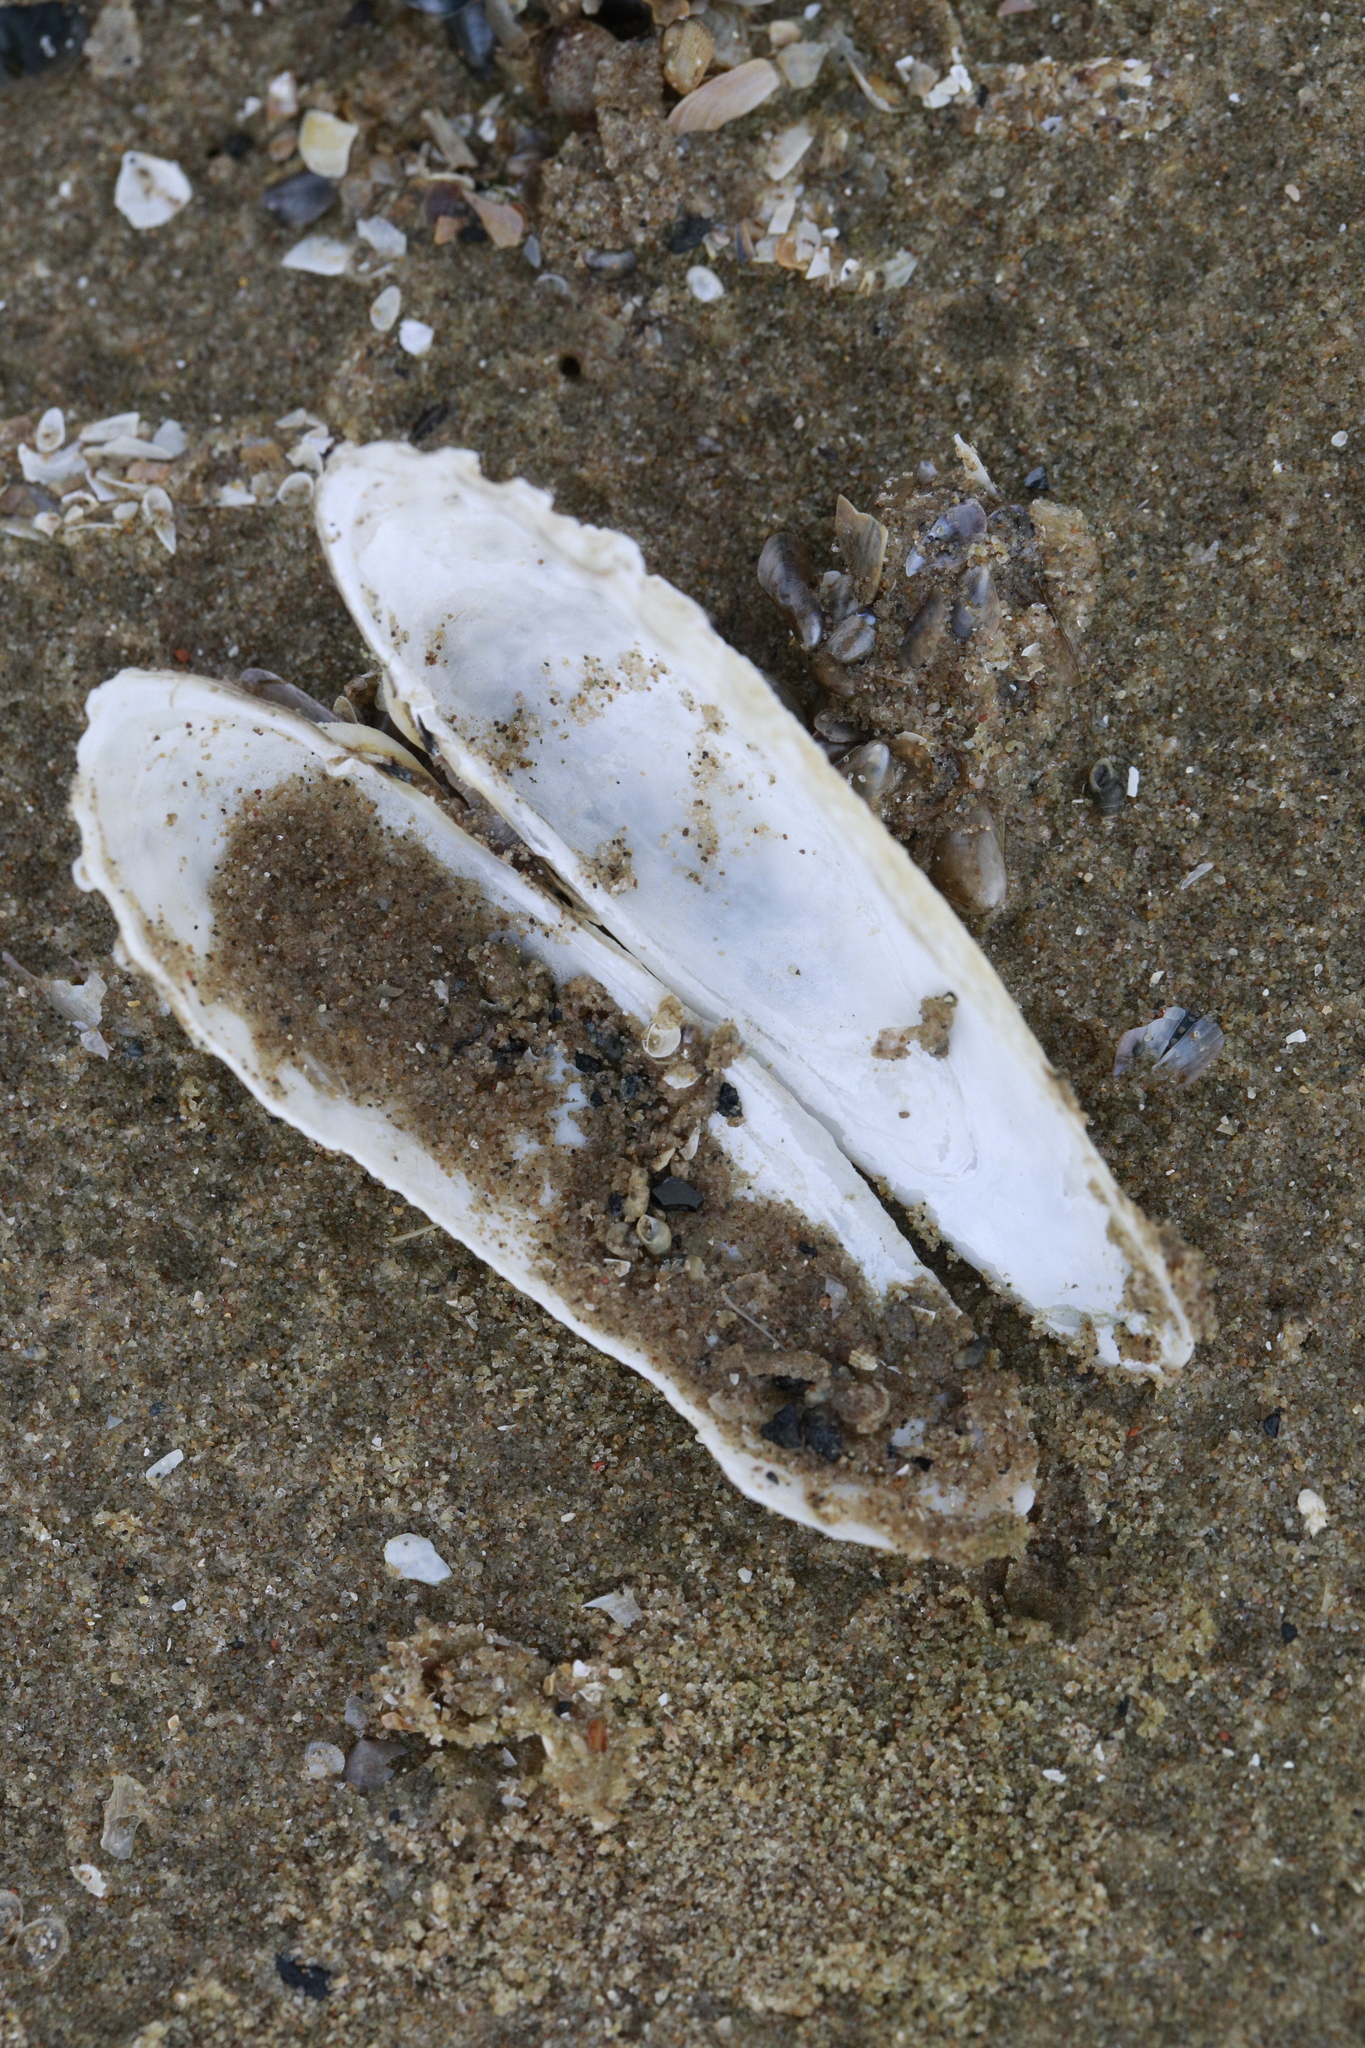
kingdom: Animalia
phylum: Mollusca
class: Bivalvia
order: Myida
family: Pholadidae
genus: Barnea
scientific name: Barnea candida
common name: White piddock
